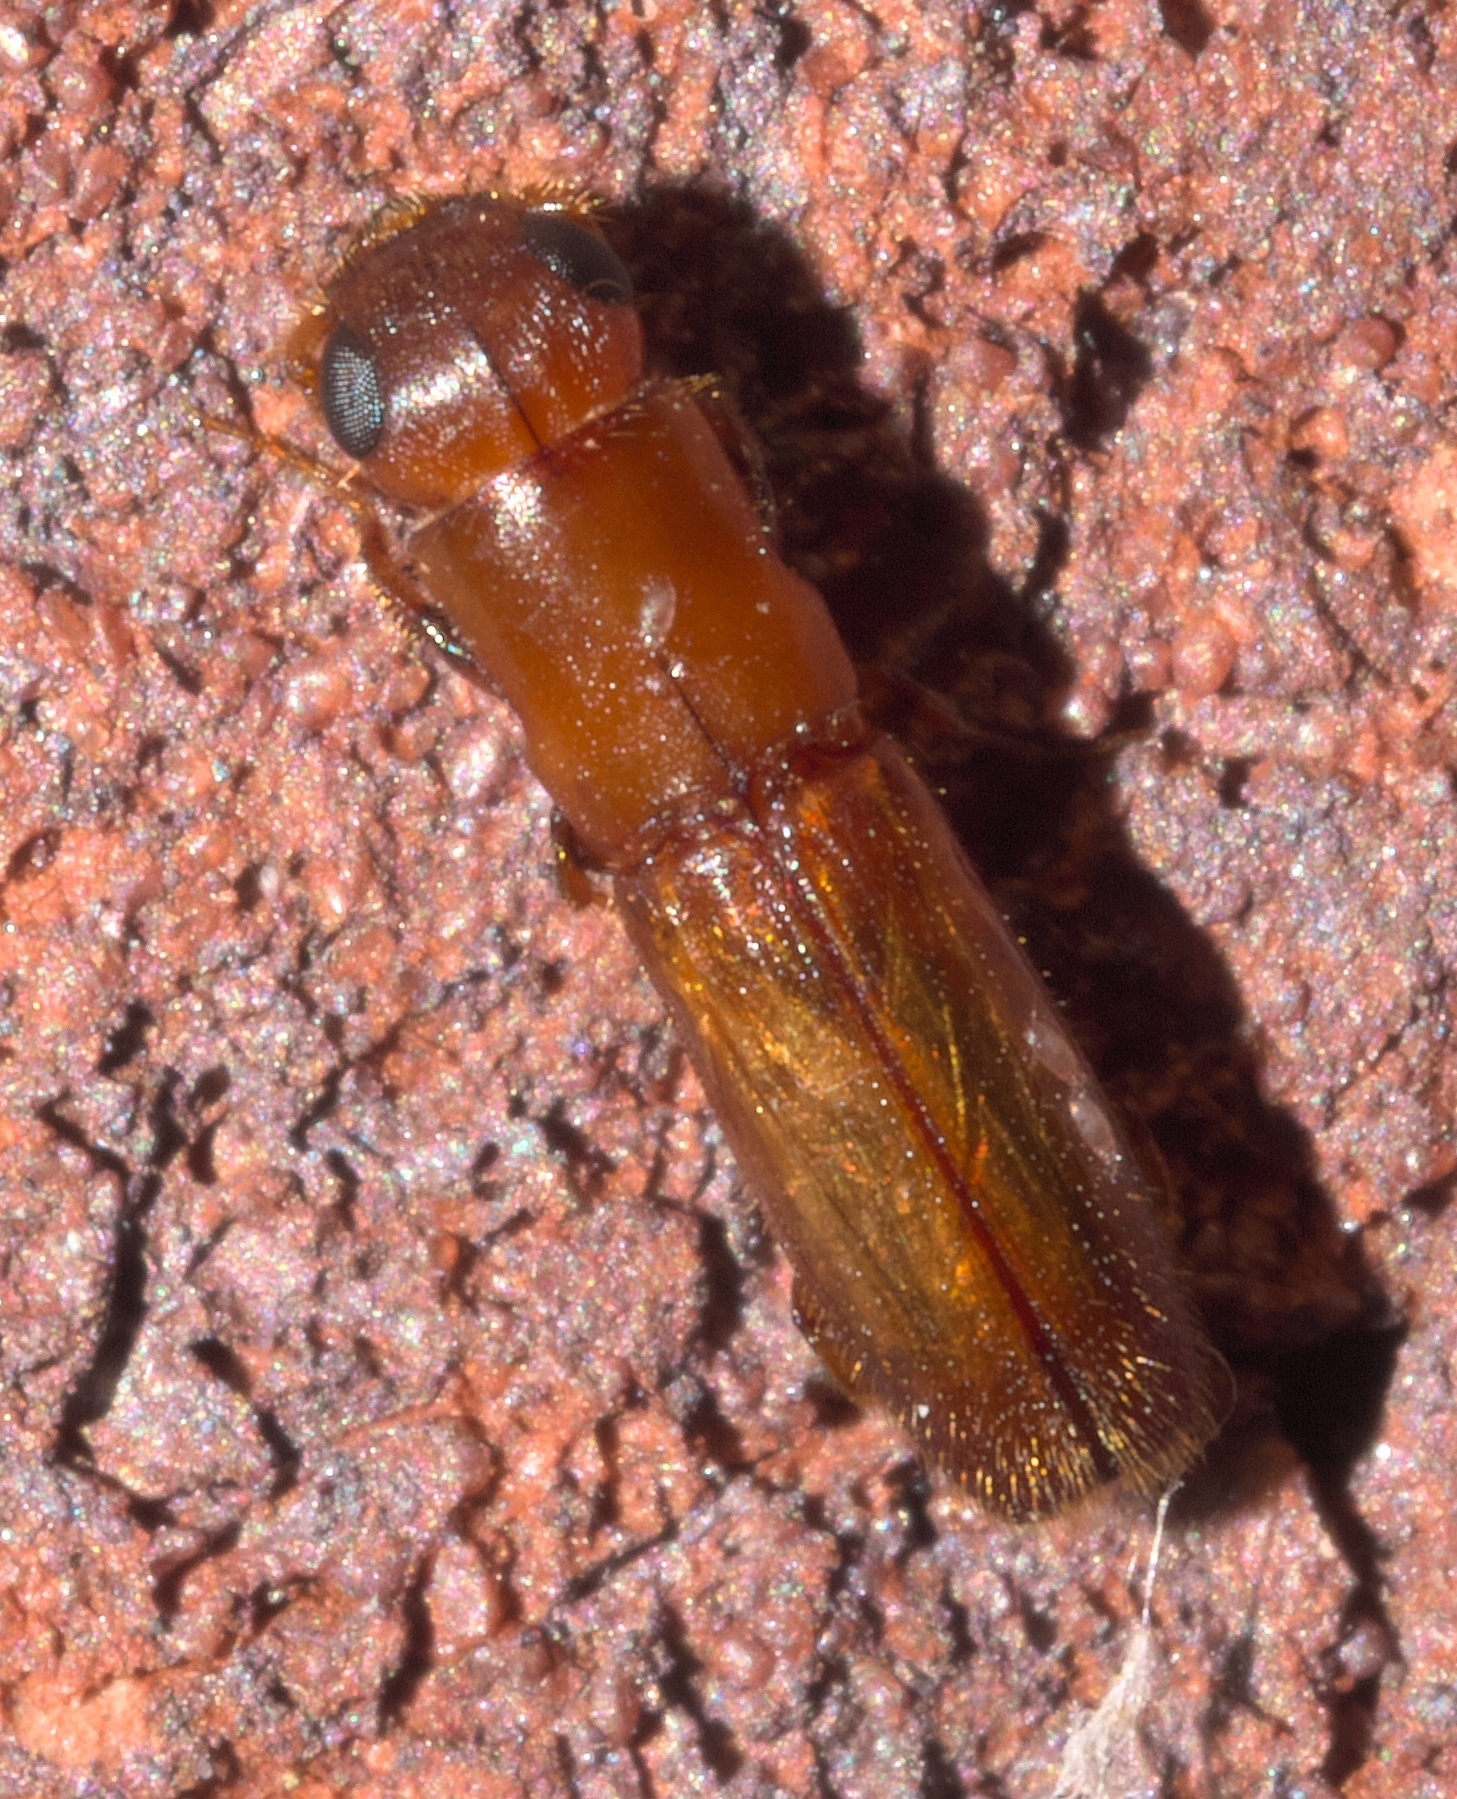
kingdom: Animalia
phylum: Arthropoda
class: Insecta
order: Coleoptera
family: Curculionidae
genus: Euplatypus
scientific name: Euplatypus compositus
